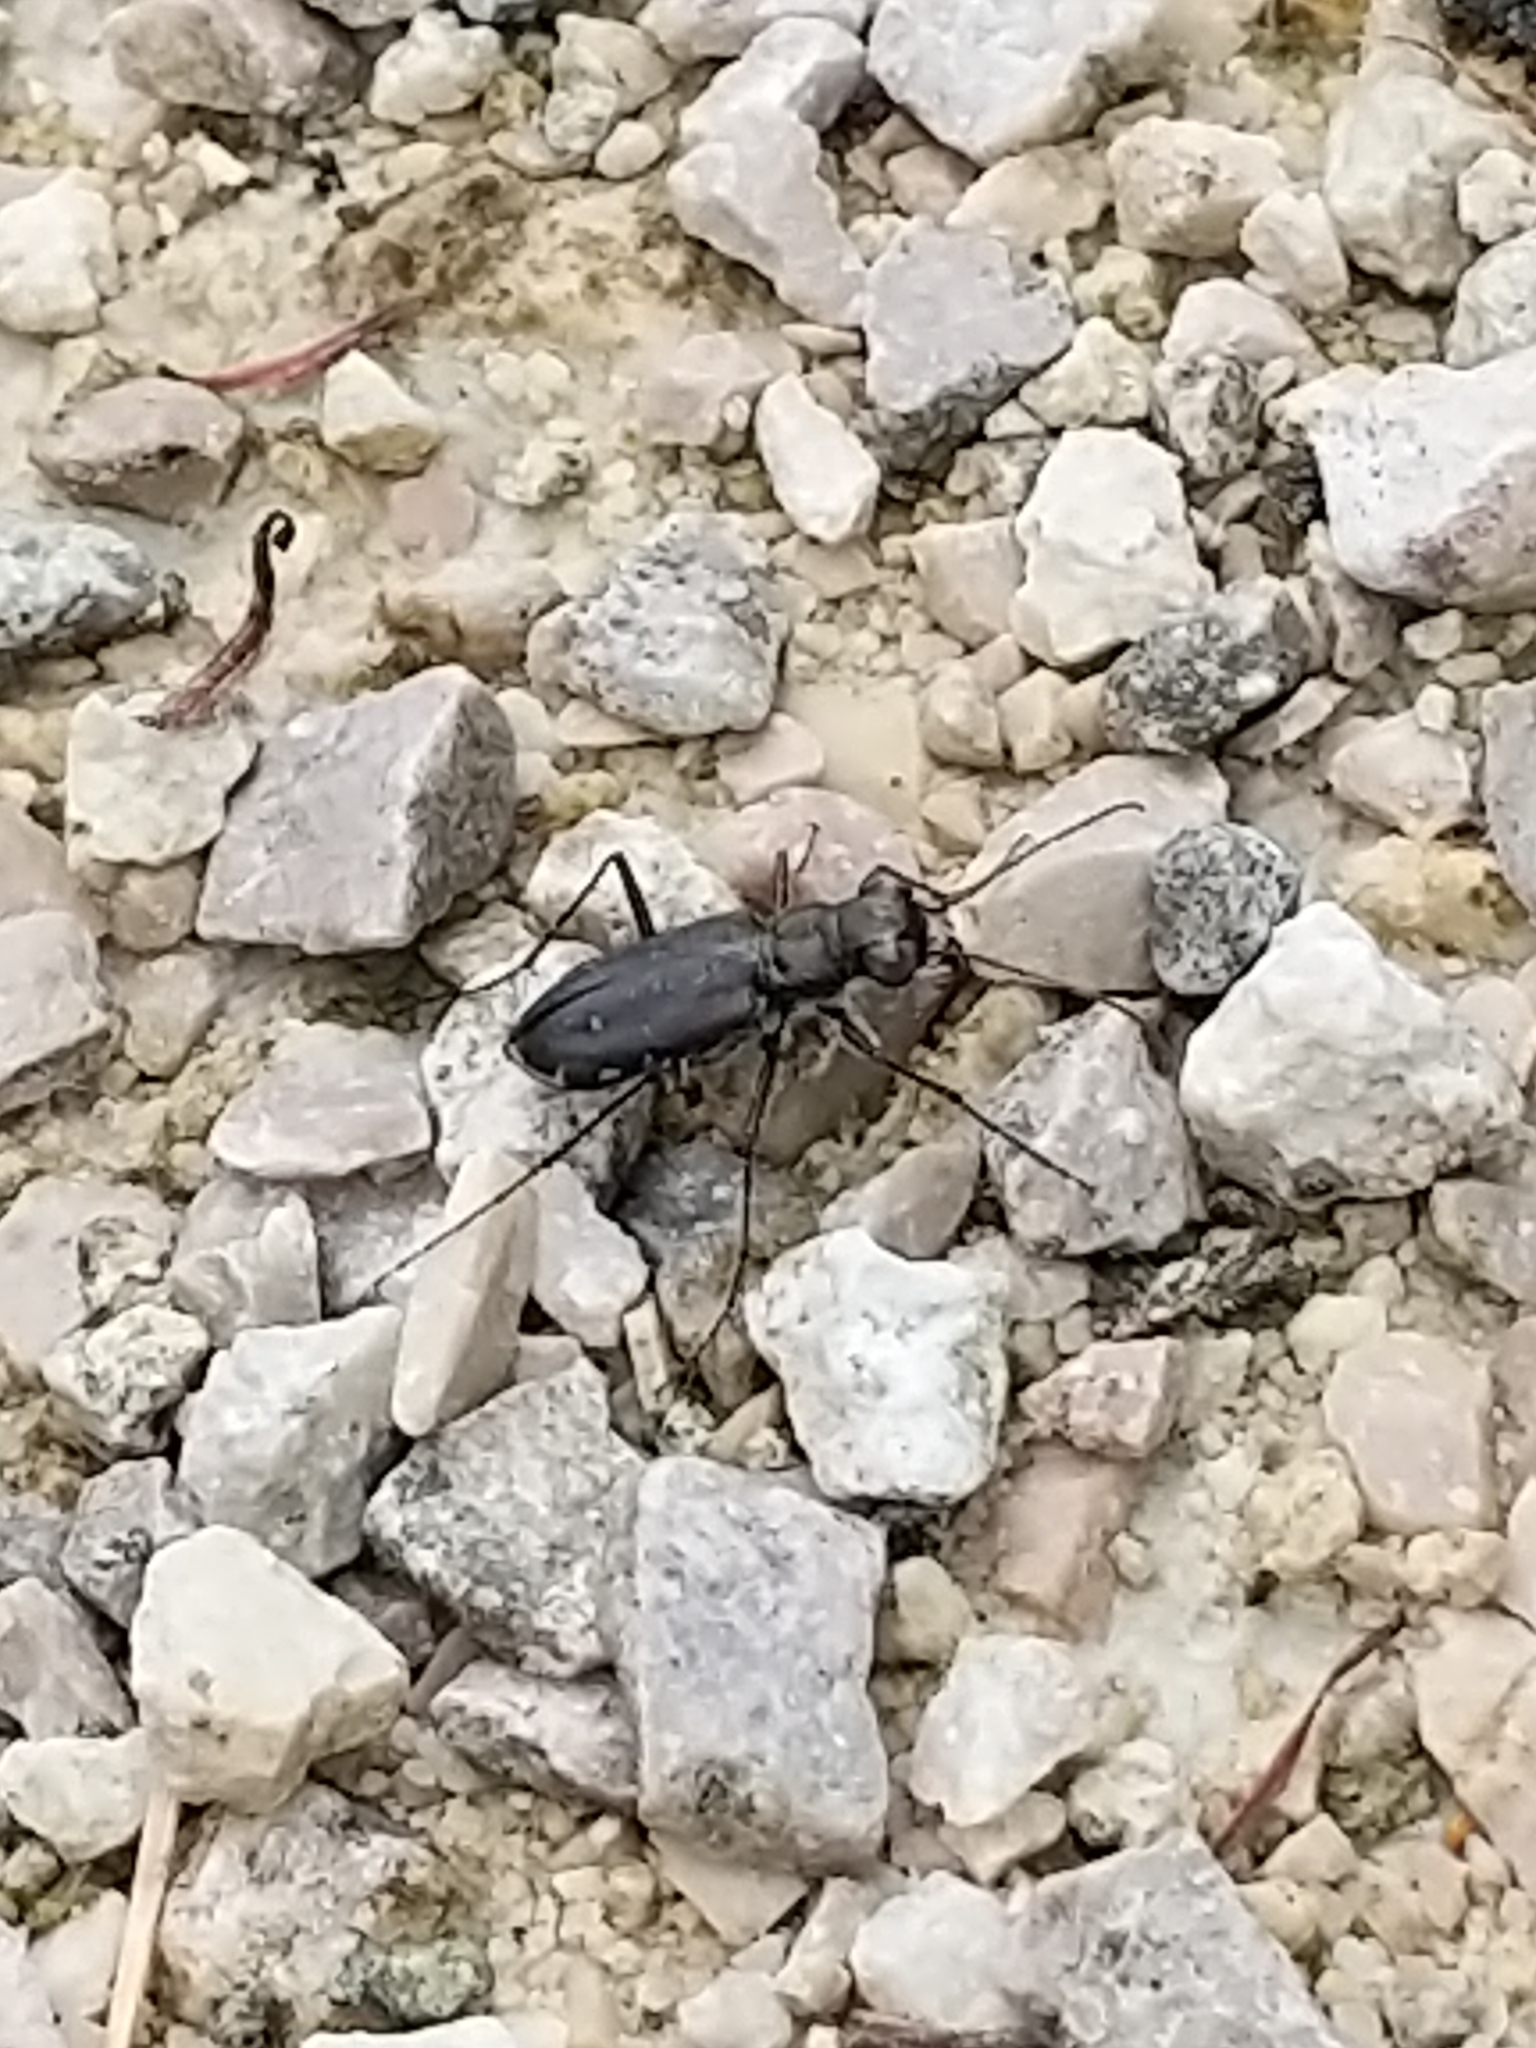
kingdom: Animalia
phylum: Arthropoda
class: Insecta
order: Coleoptera
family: Carabidae
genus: Cicindela
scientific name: Cicindela punctulata
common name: Punctured tiger beetle
